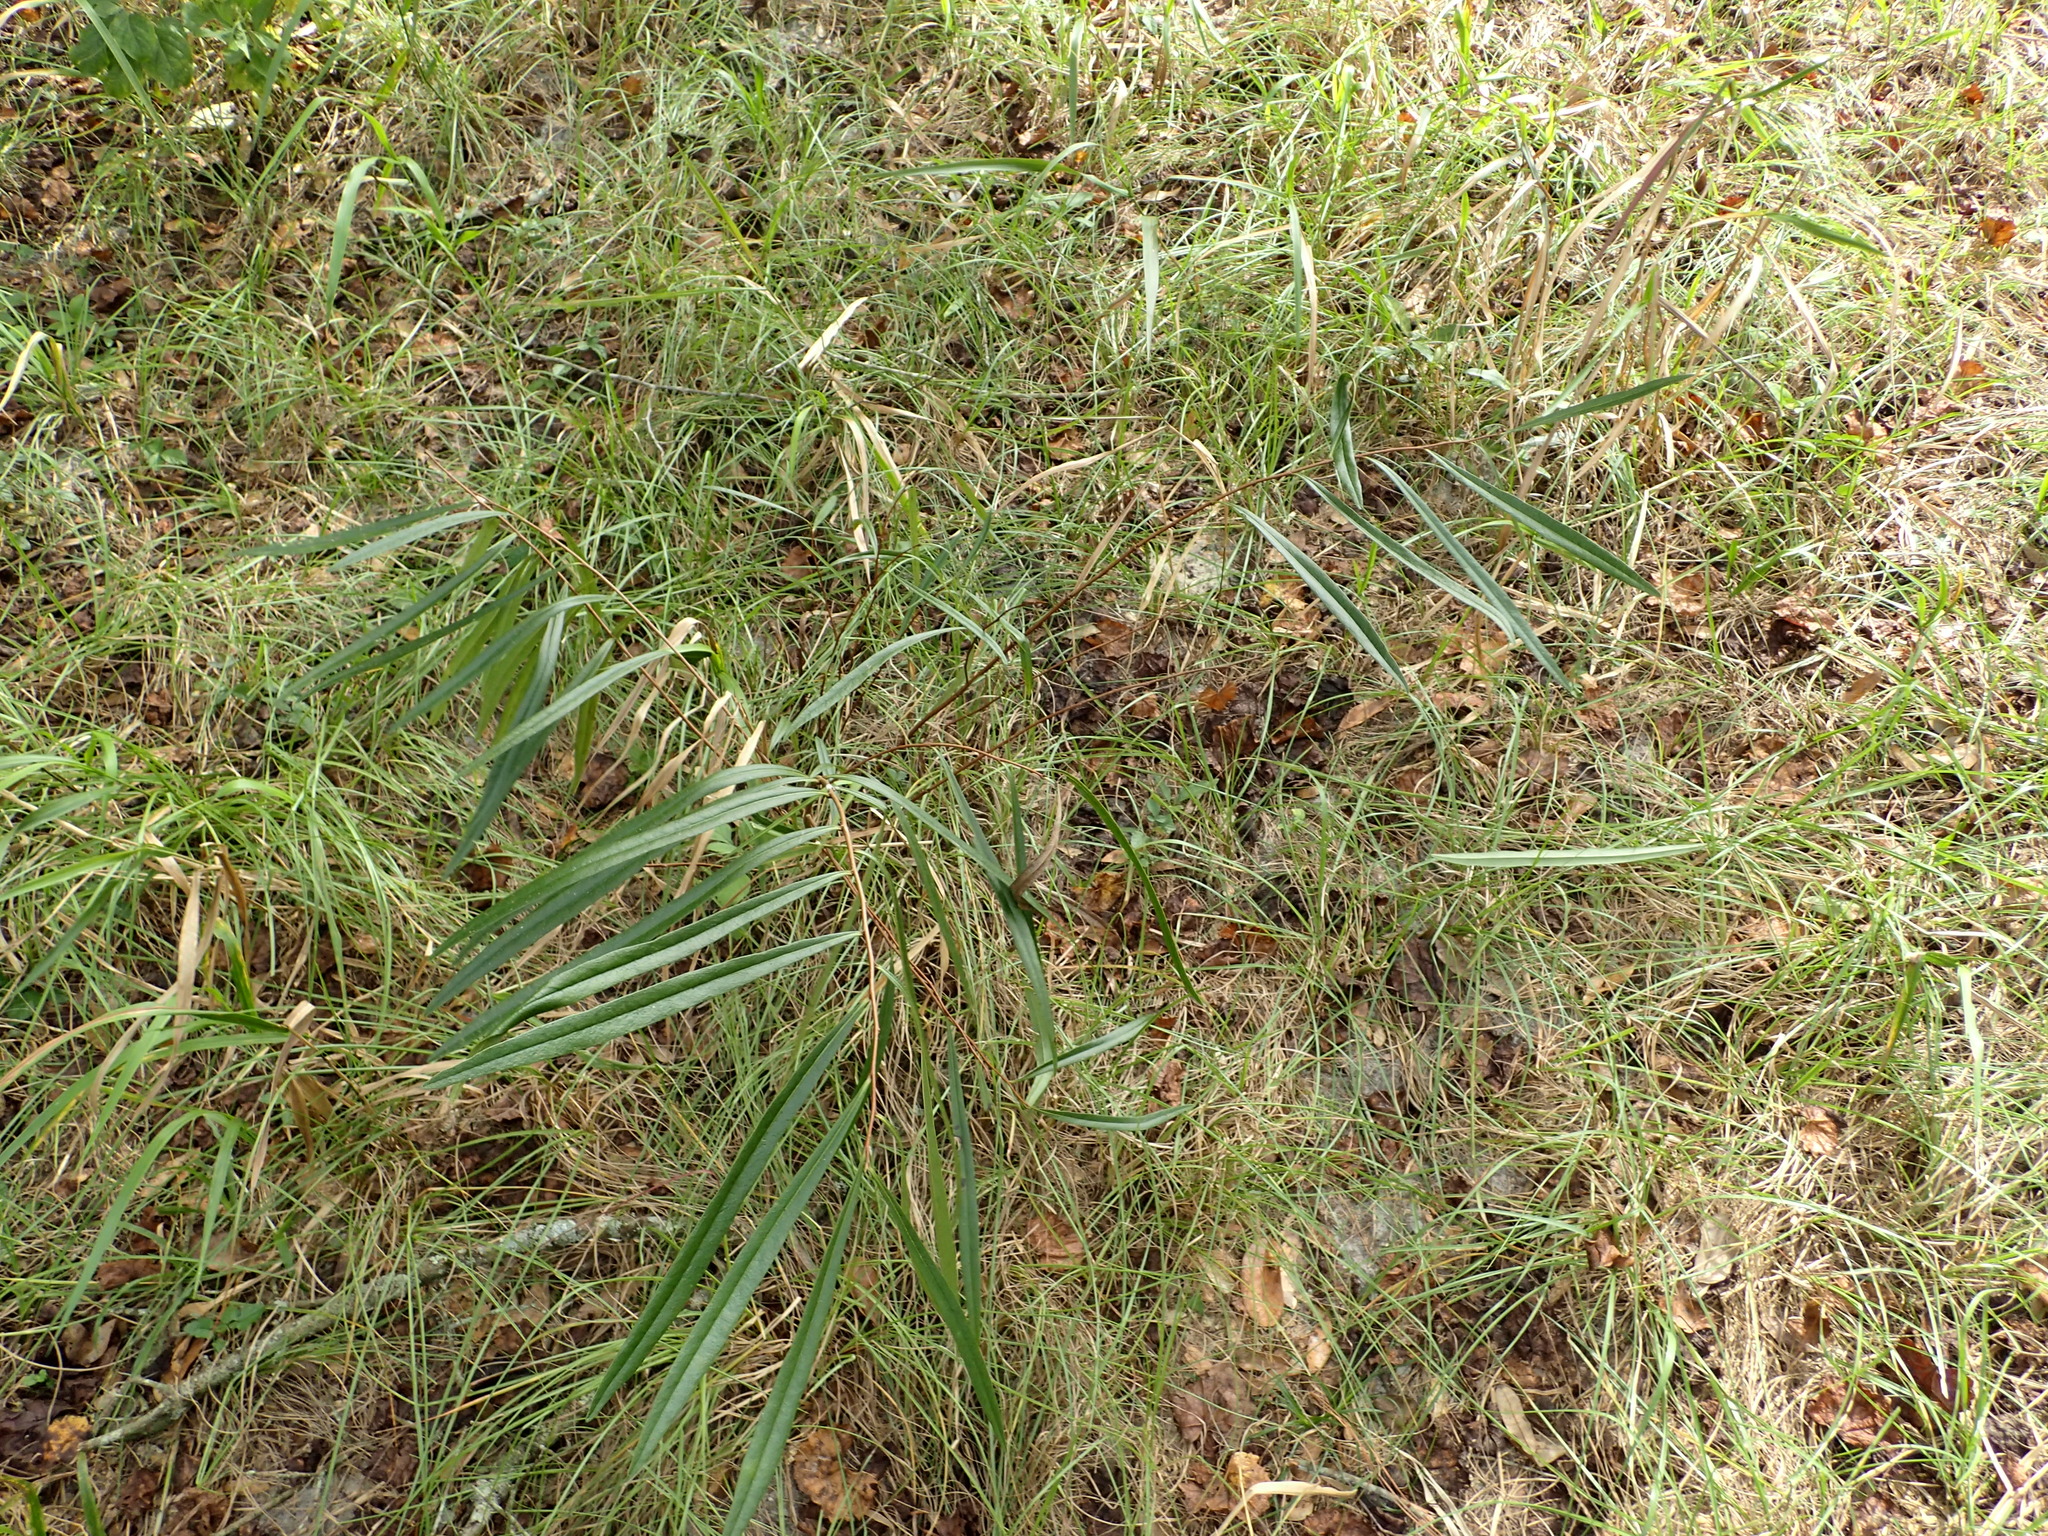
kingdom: Plantae
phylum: Tracheophyta
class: Magnoliopsida
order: Magnoliales
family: Annonaceae
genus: Asimina
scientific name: Asimina longifolia
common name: Polecatbush
